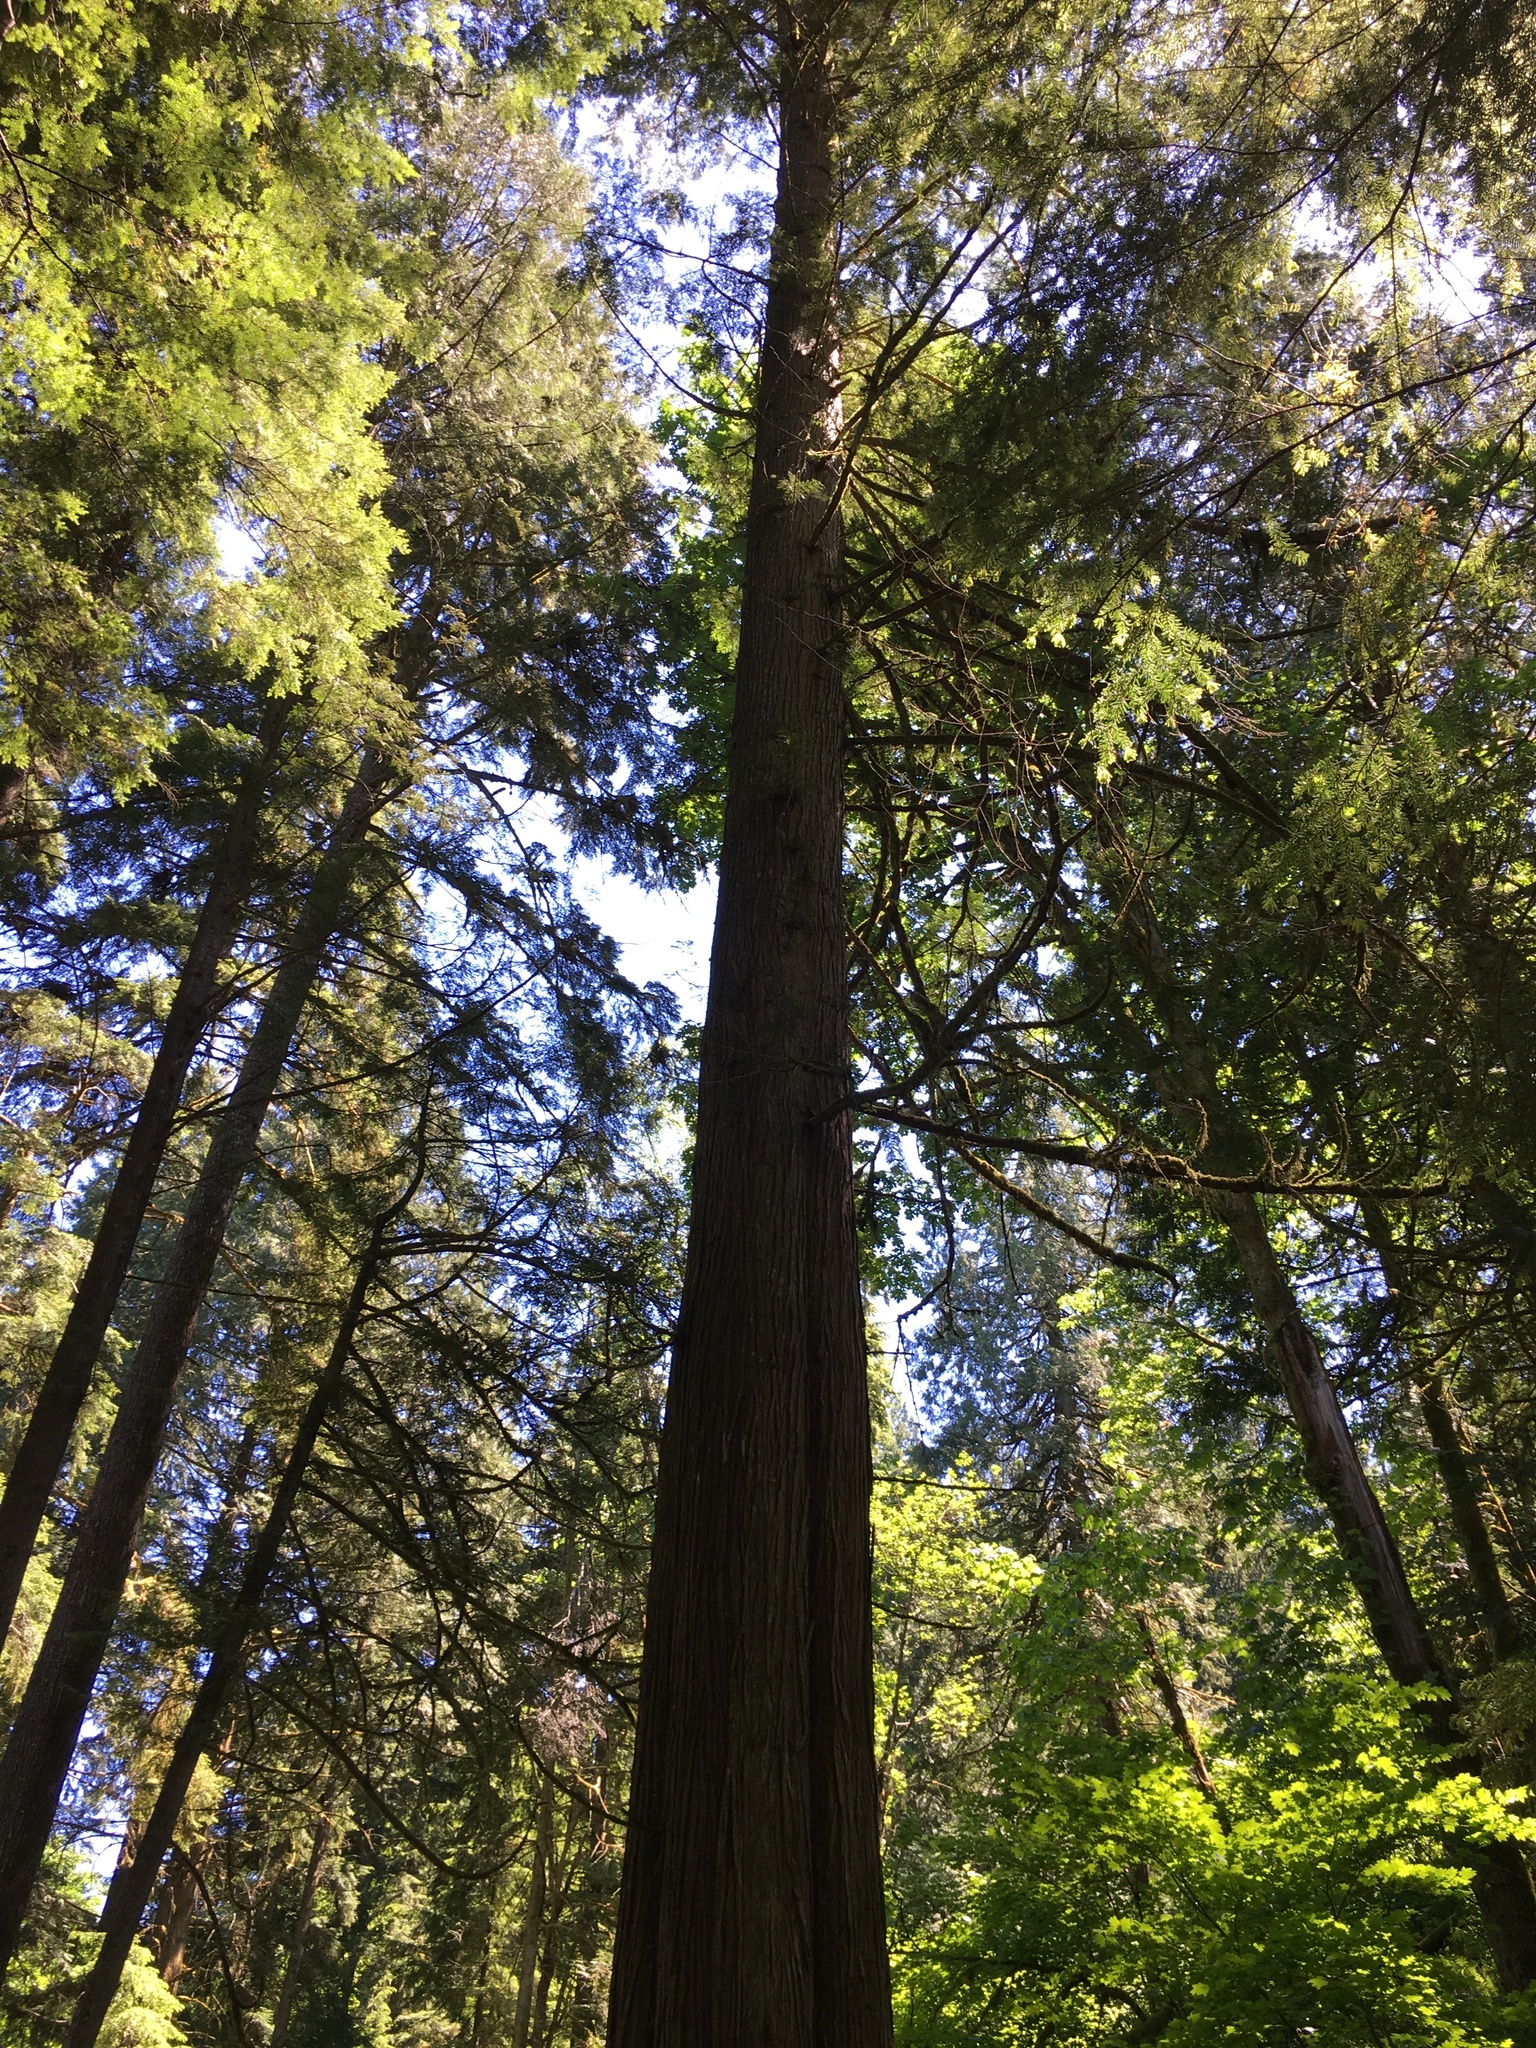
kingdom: Plantae
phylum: Tracheophyta
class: Pinopsida
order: Pinales
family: Cupressaceae
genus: Thuja
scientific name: Thuja plicata
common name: Western red-cedar
